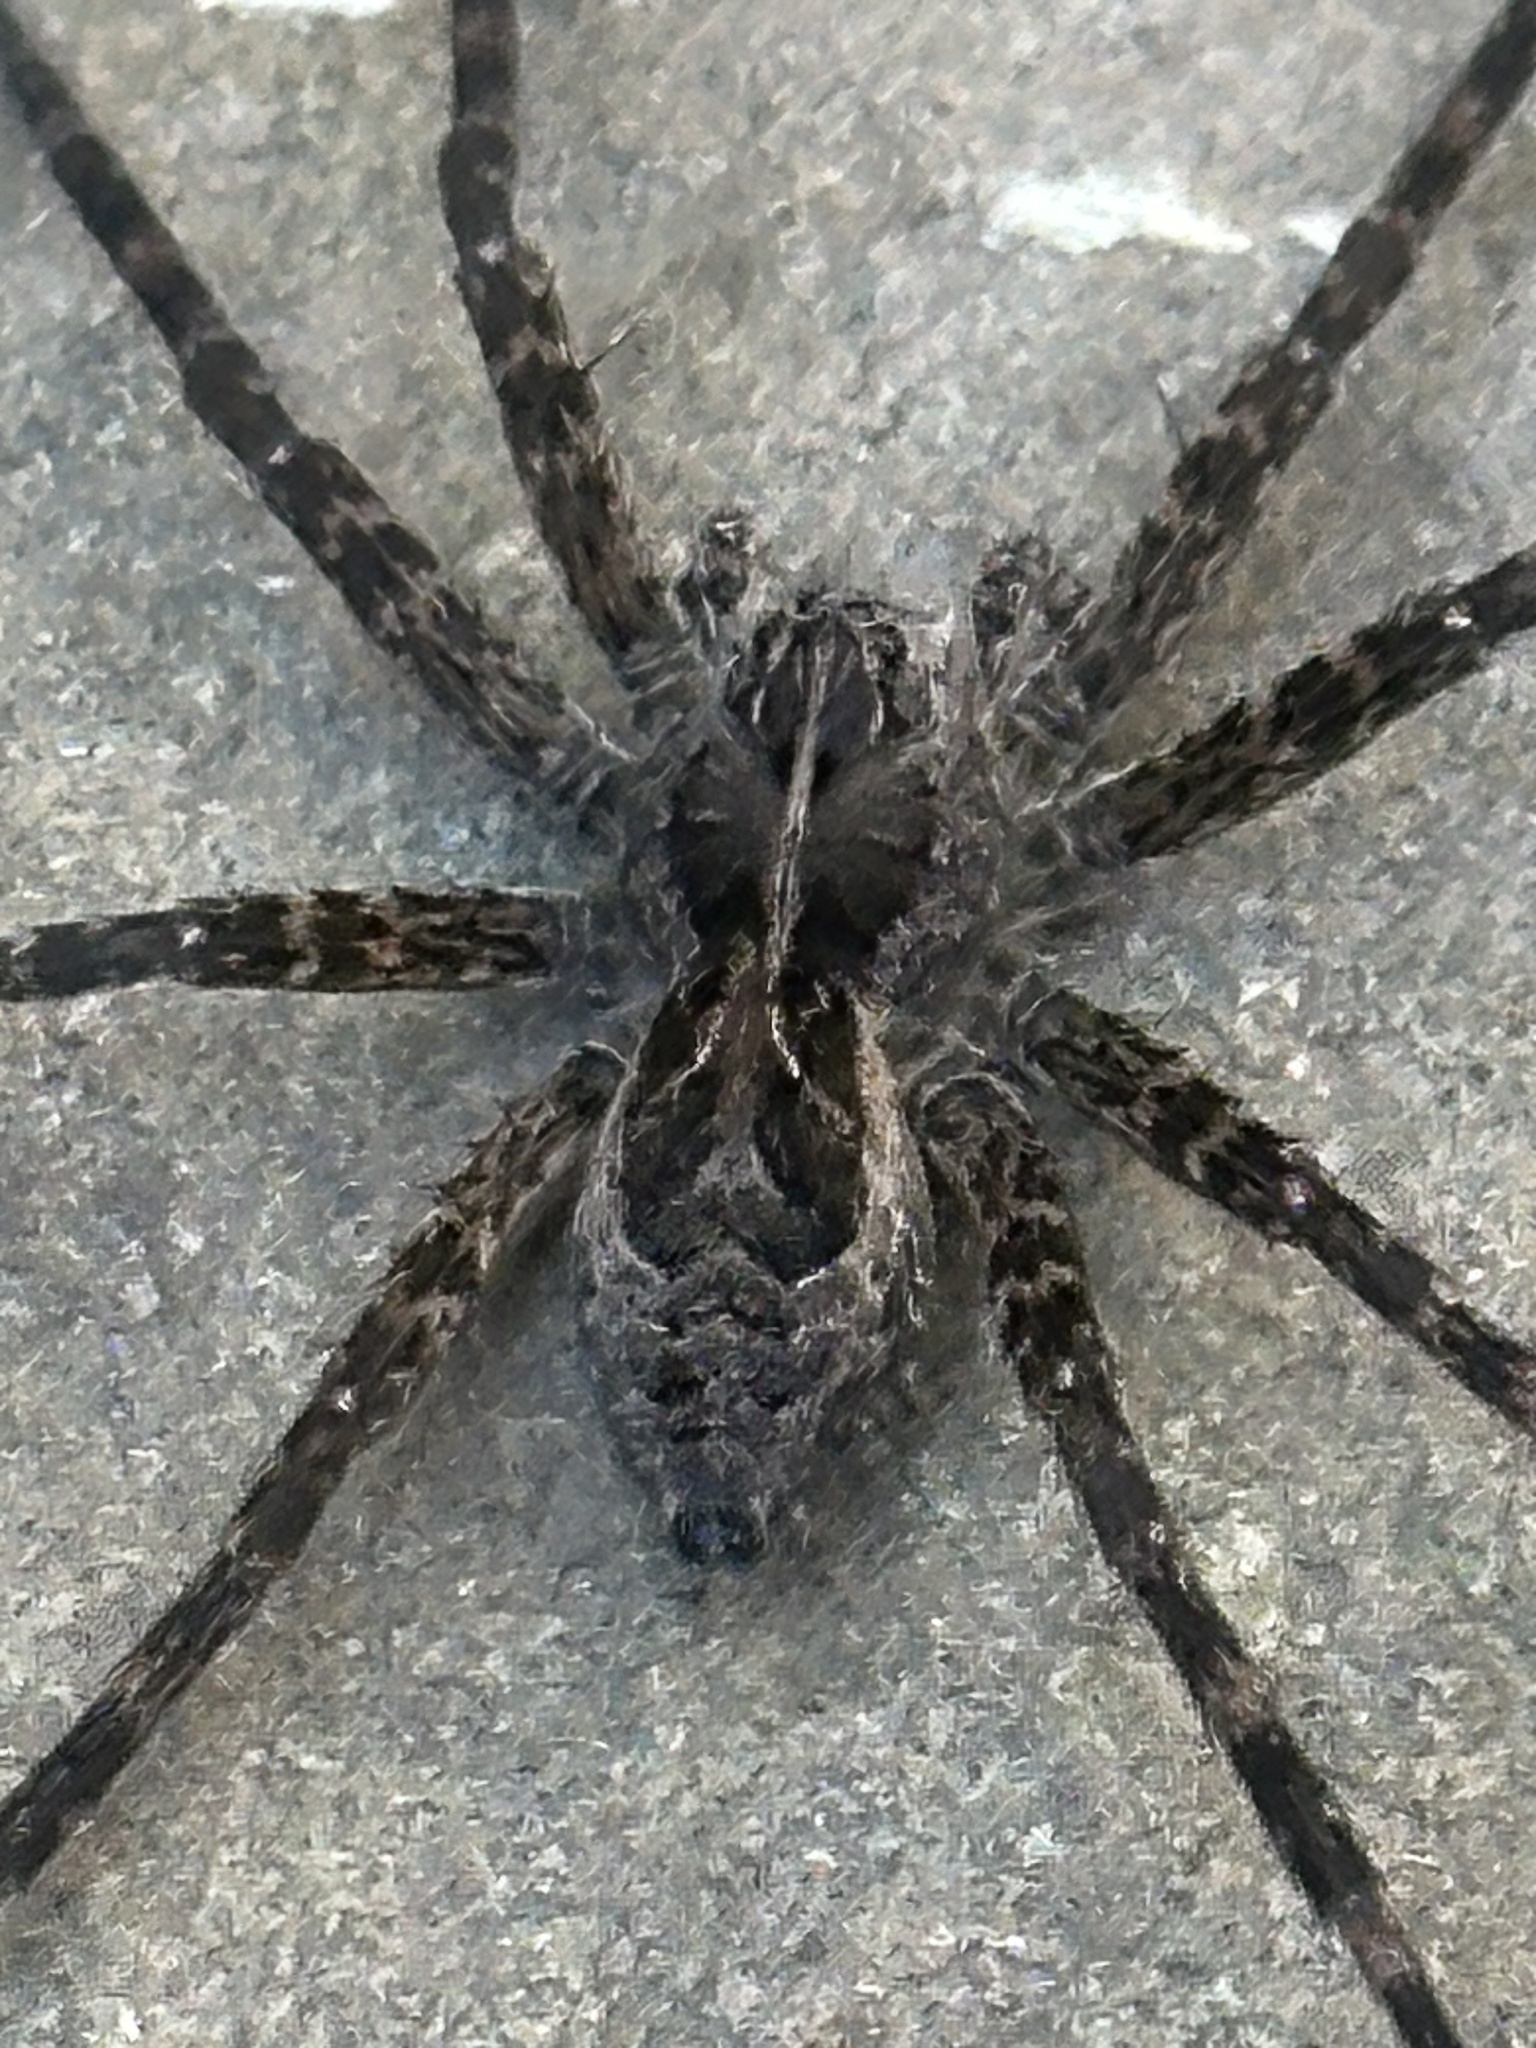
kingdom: Animalia
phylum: Arthropoda
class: Arachnida
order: Araneae
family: Pisauridae
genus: Dolomedes
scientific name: Dolomedes scriptus
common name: Striped fishing spider
